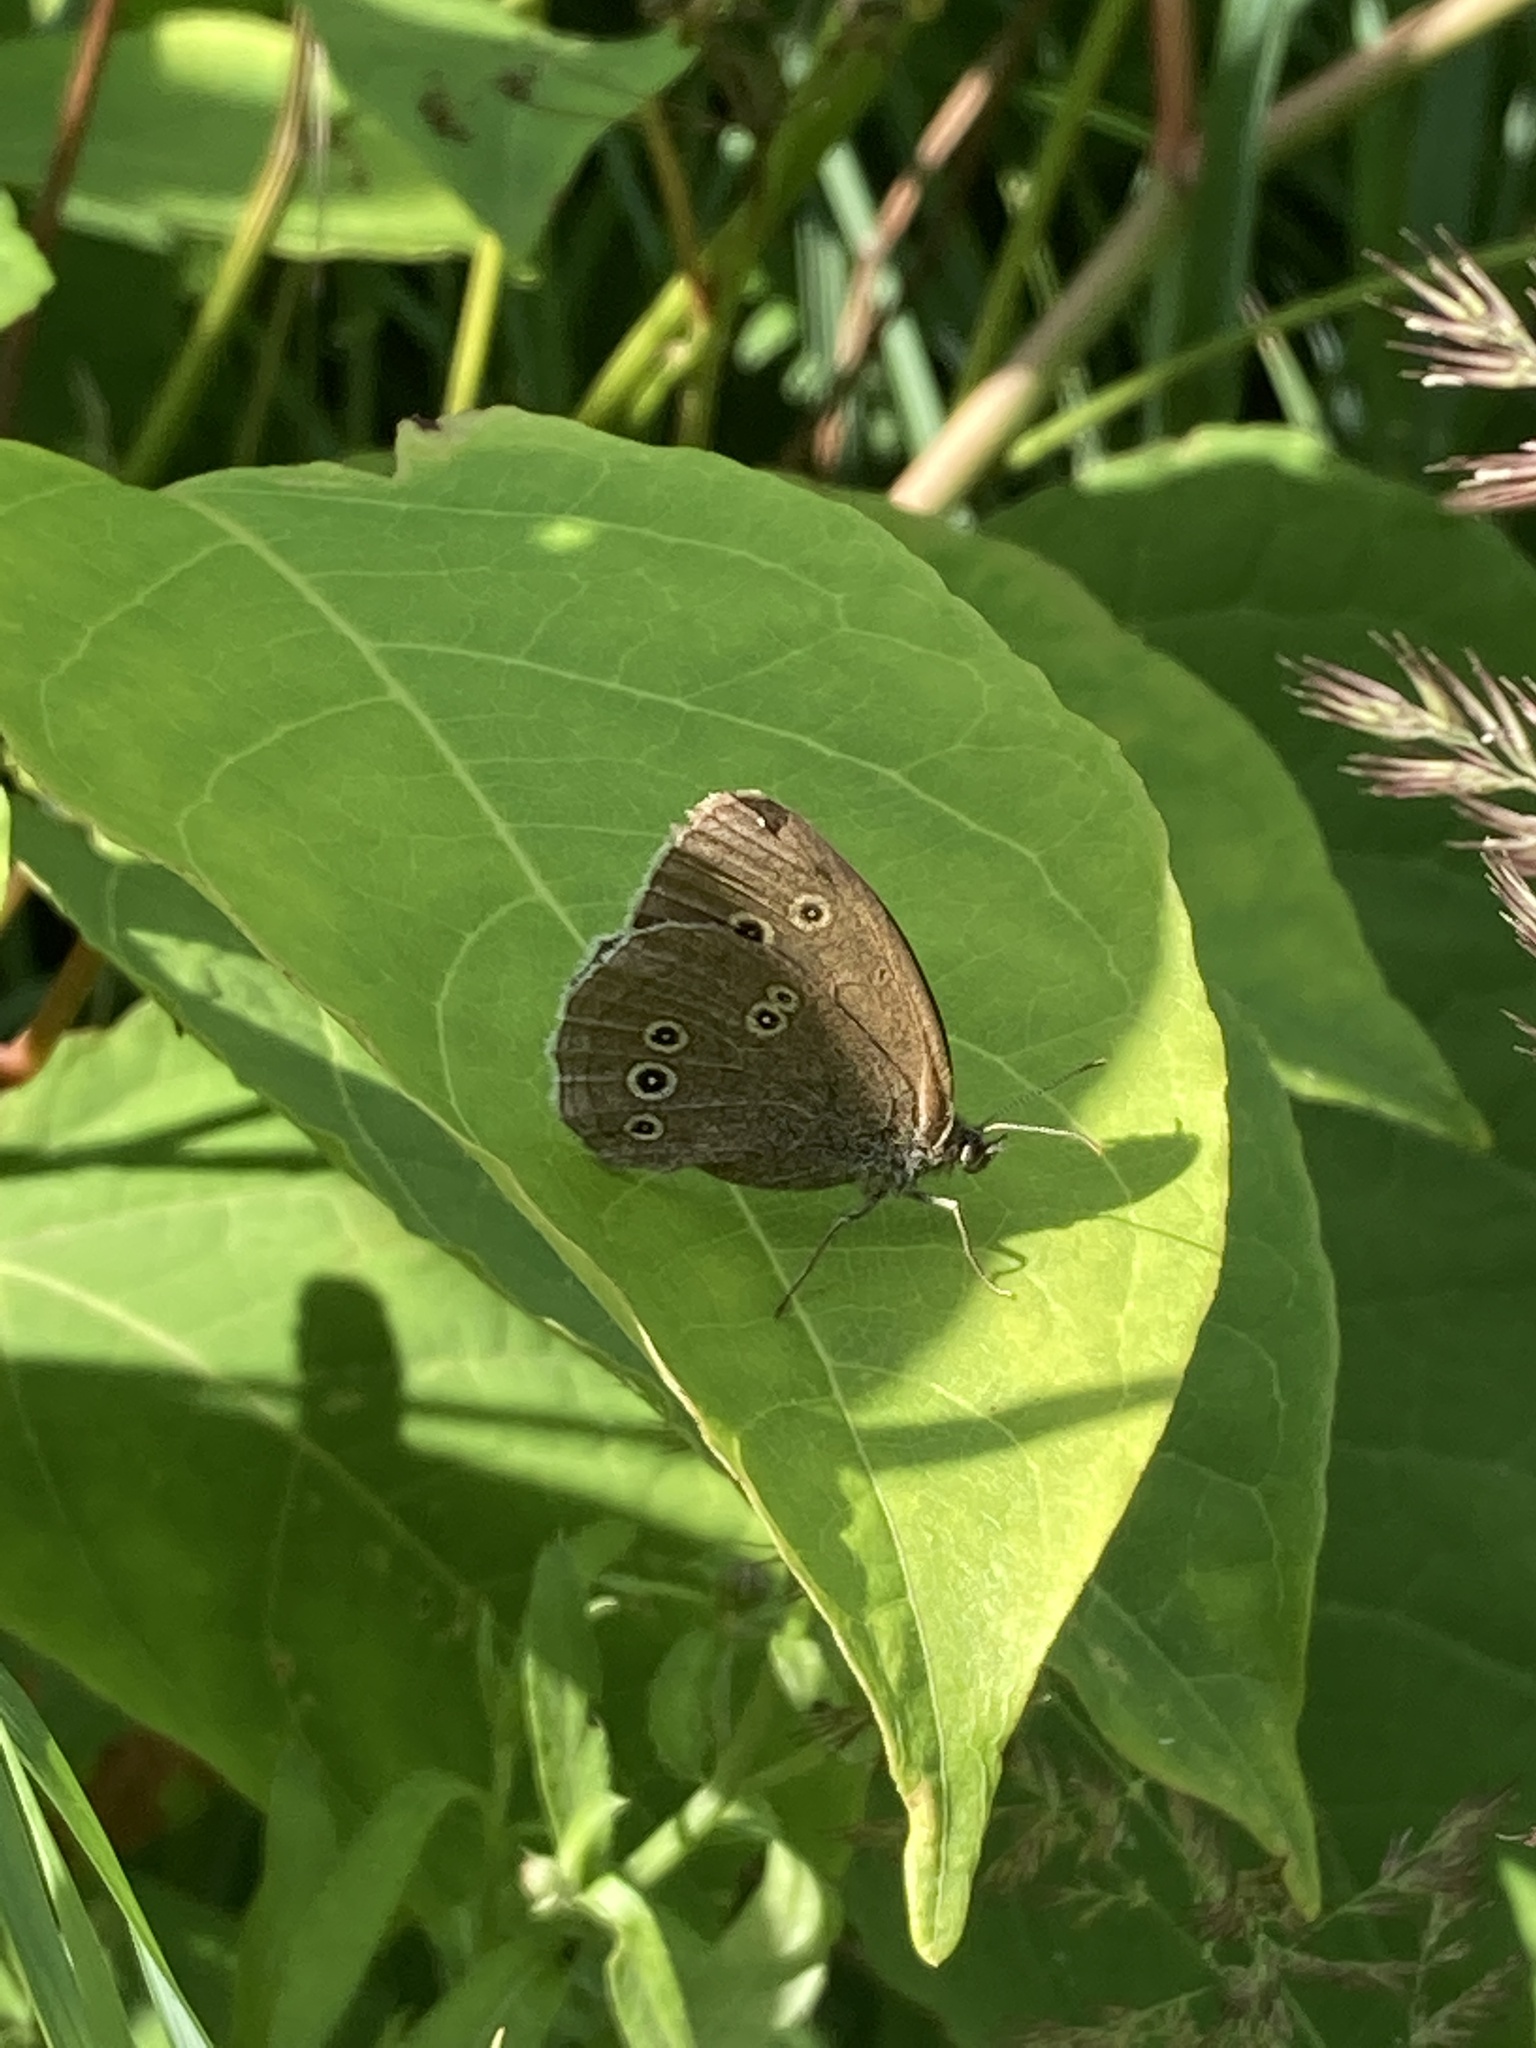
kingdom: Animalia
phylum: Arthropoda
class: Insecta
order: Lepidoptera
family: Nymphalidae
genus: Aphantopus
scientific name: Aphantopus hyperantus
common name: Ringlet
